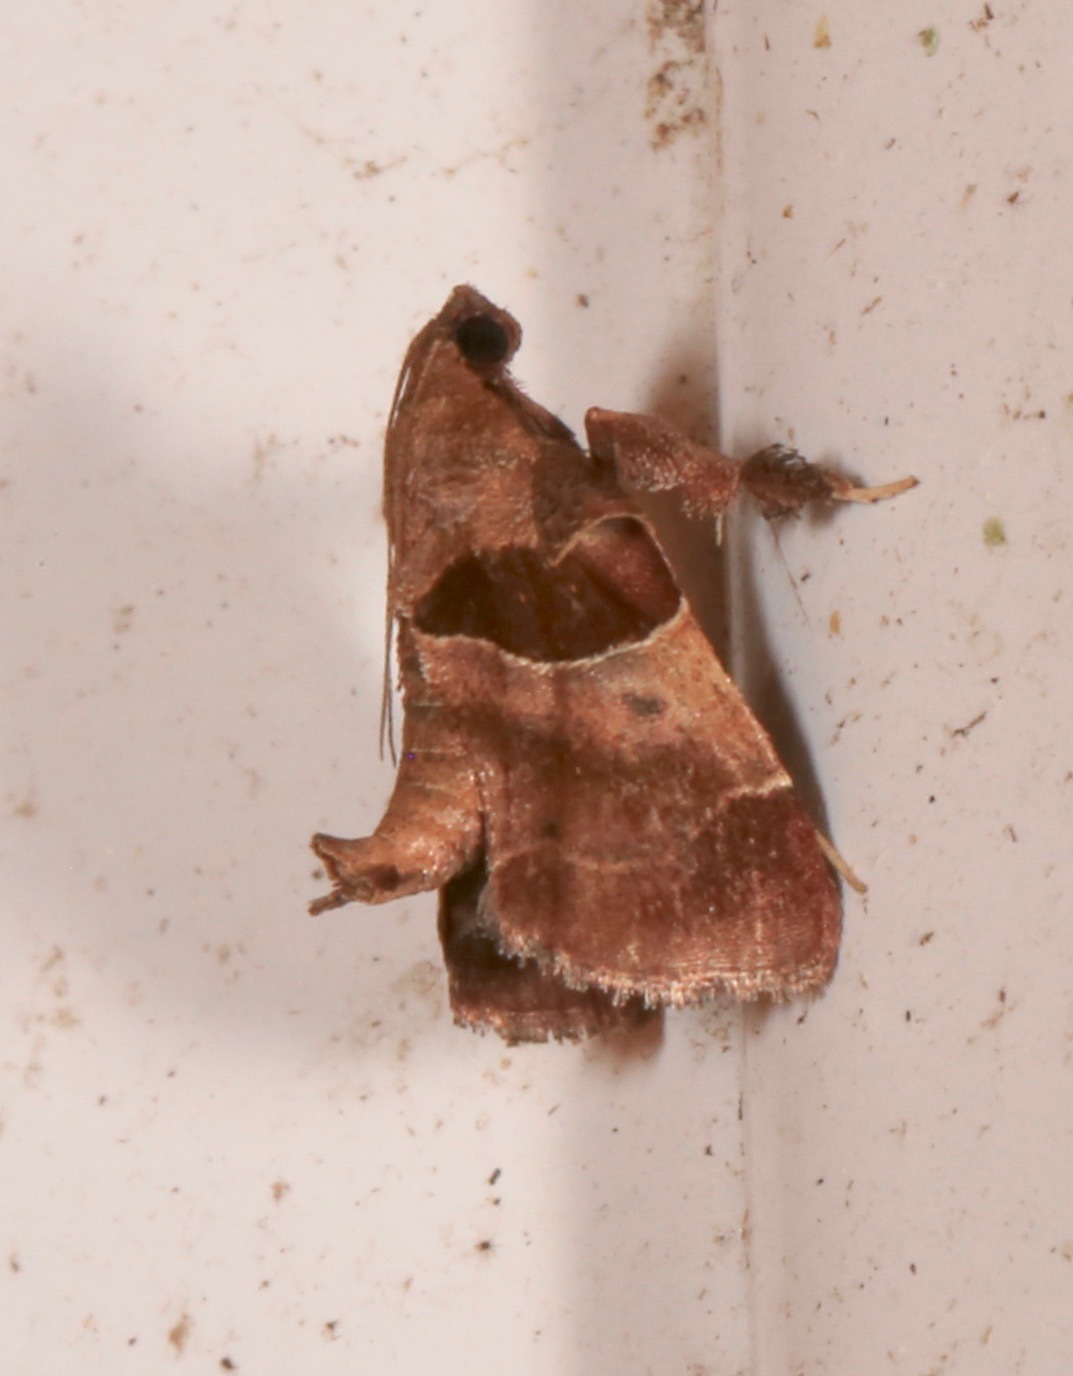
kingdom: Animalia
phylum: Arthropoda
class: Insecta
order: Lepidoptera
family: Pyralidae
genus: Tosale
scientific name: Tosale oviplagalis
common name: Dimorphic tosale moth
